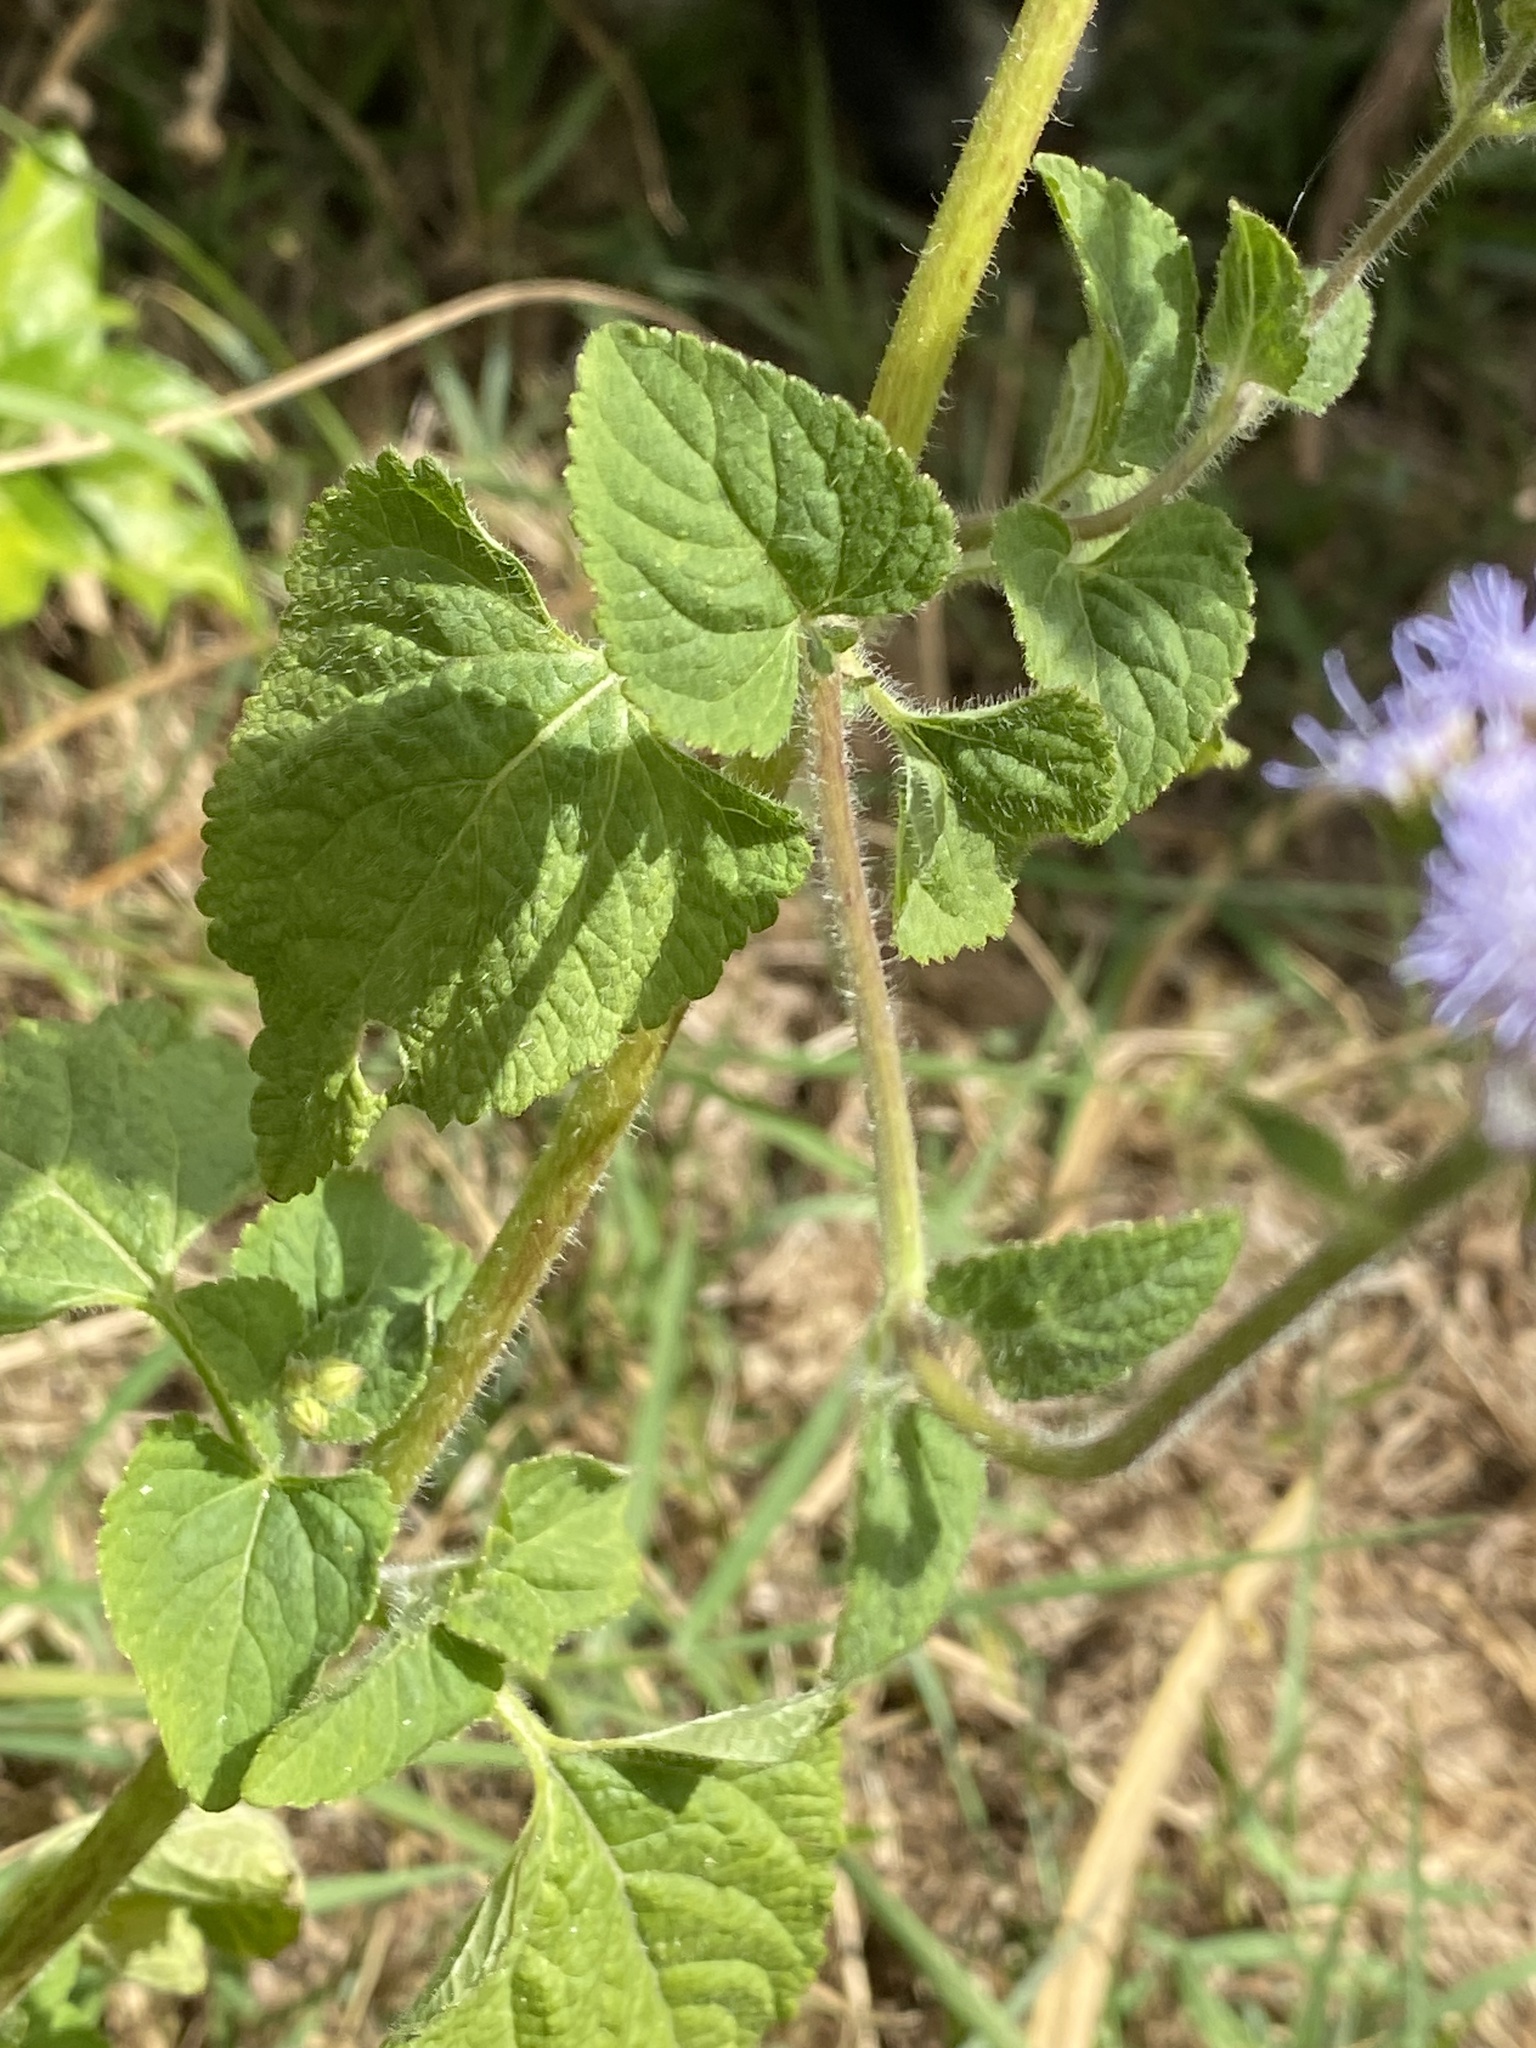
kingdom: Plantae
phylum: Tracheophyta
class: Magnoliopsida
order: Asterales
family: Asteraceae
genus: Ageratum
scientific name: Ageratum houstonianum
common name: Bluemink
